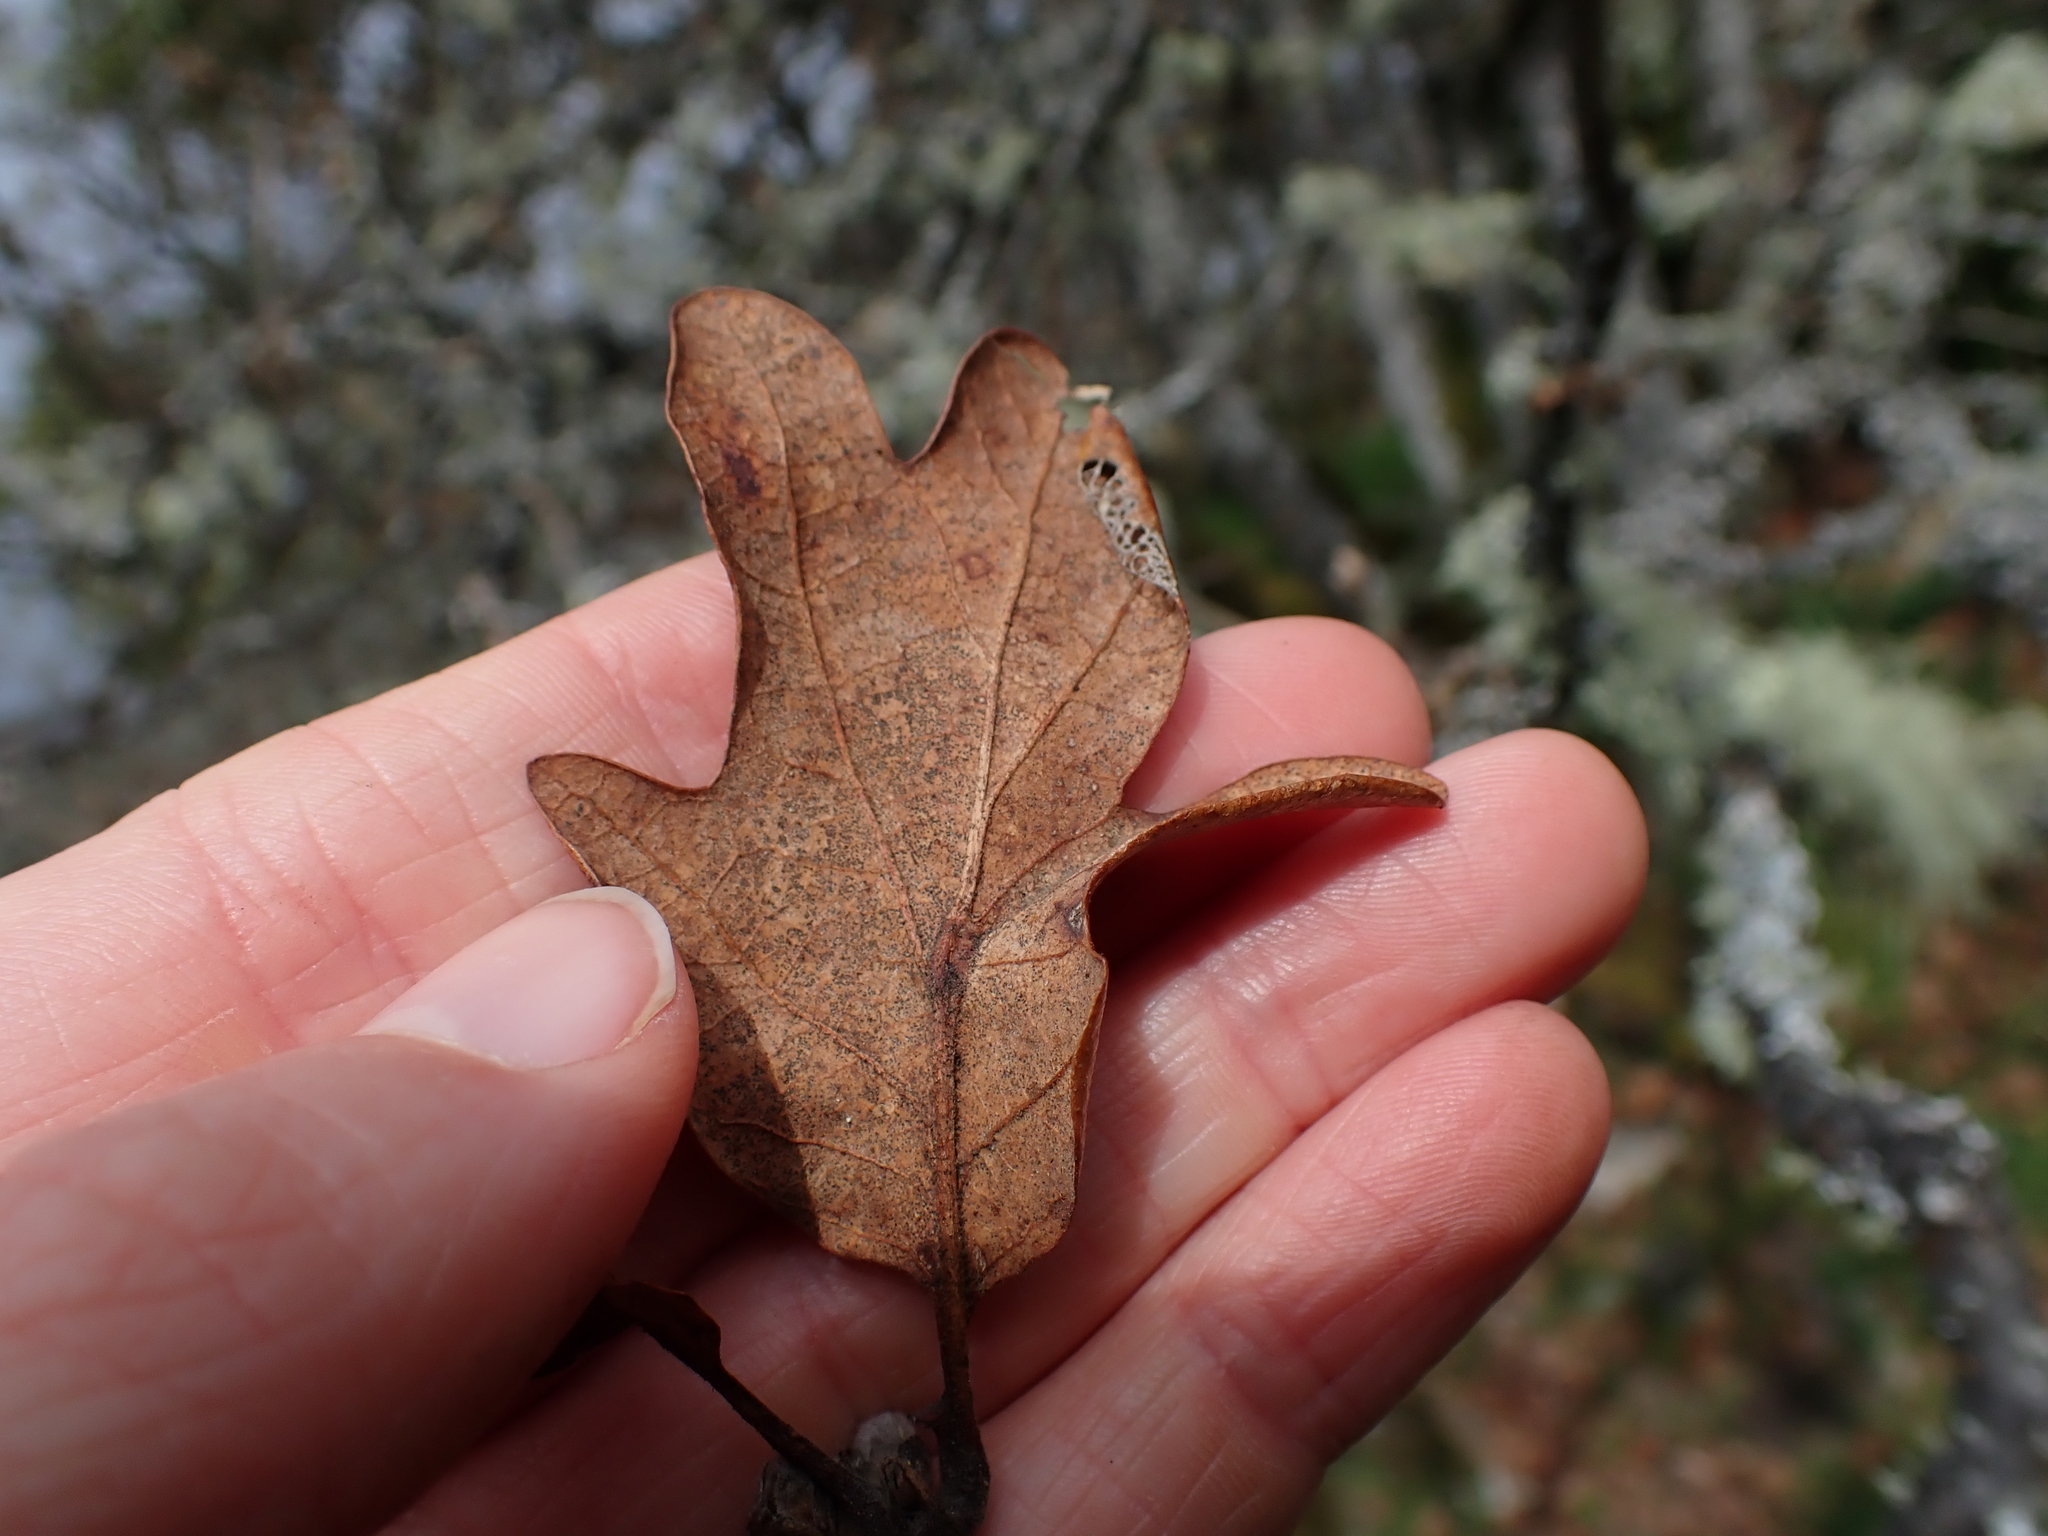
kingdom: Plantae
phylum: Tracheophyta
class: Magnoliopsida
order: Fagales
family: Fagaceae
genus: Quercus
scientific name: Quercus garryana
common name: Garry oak
